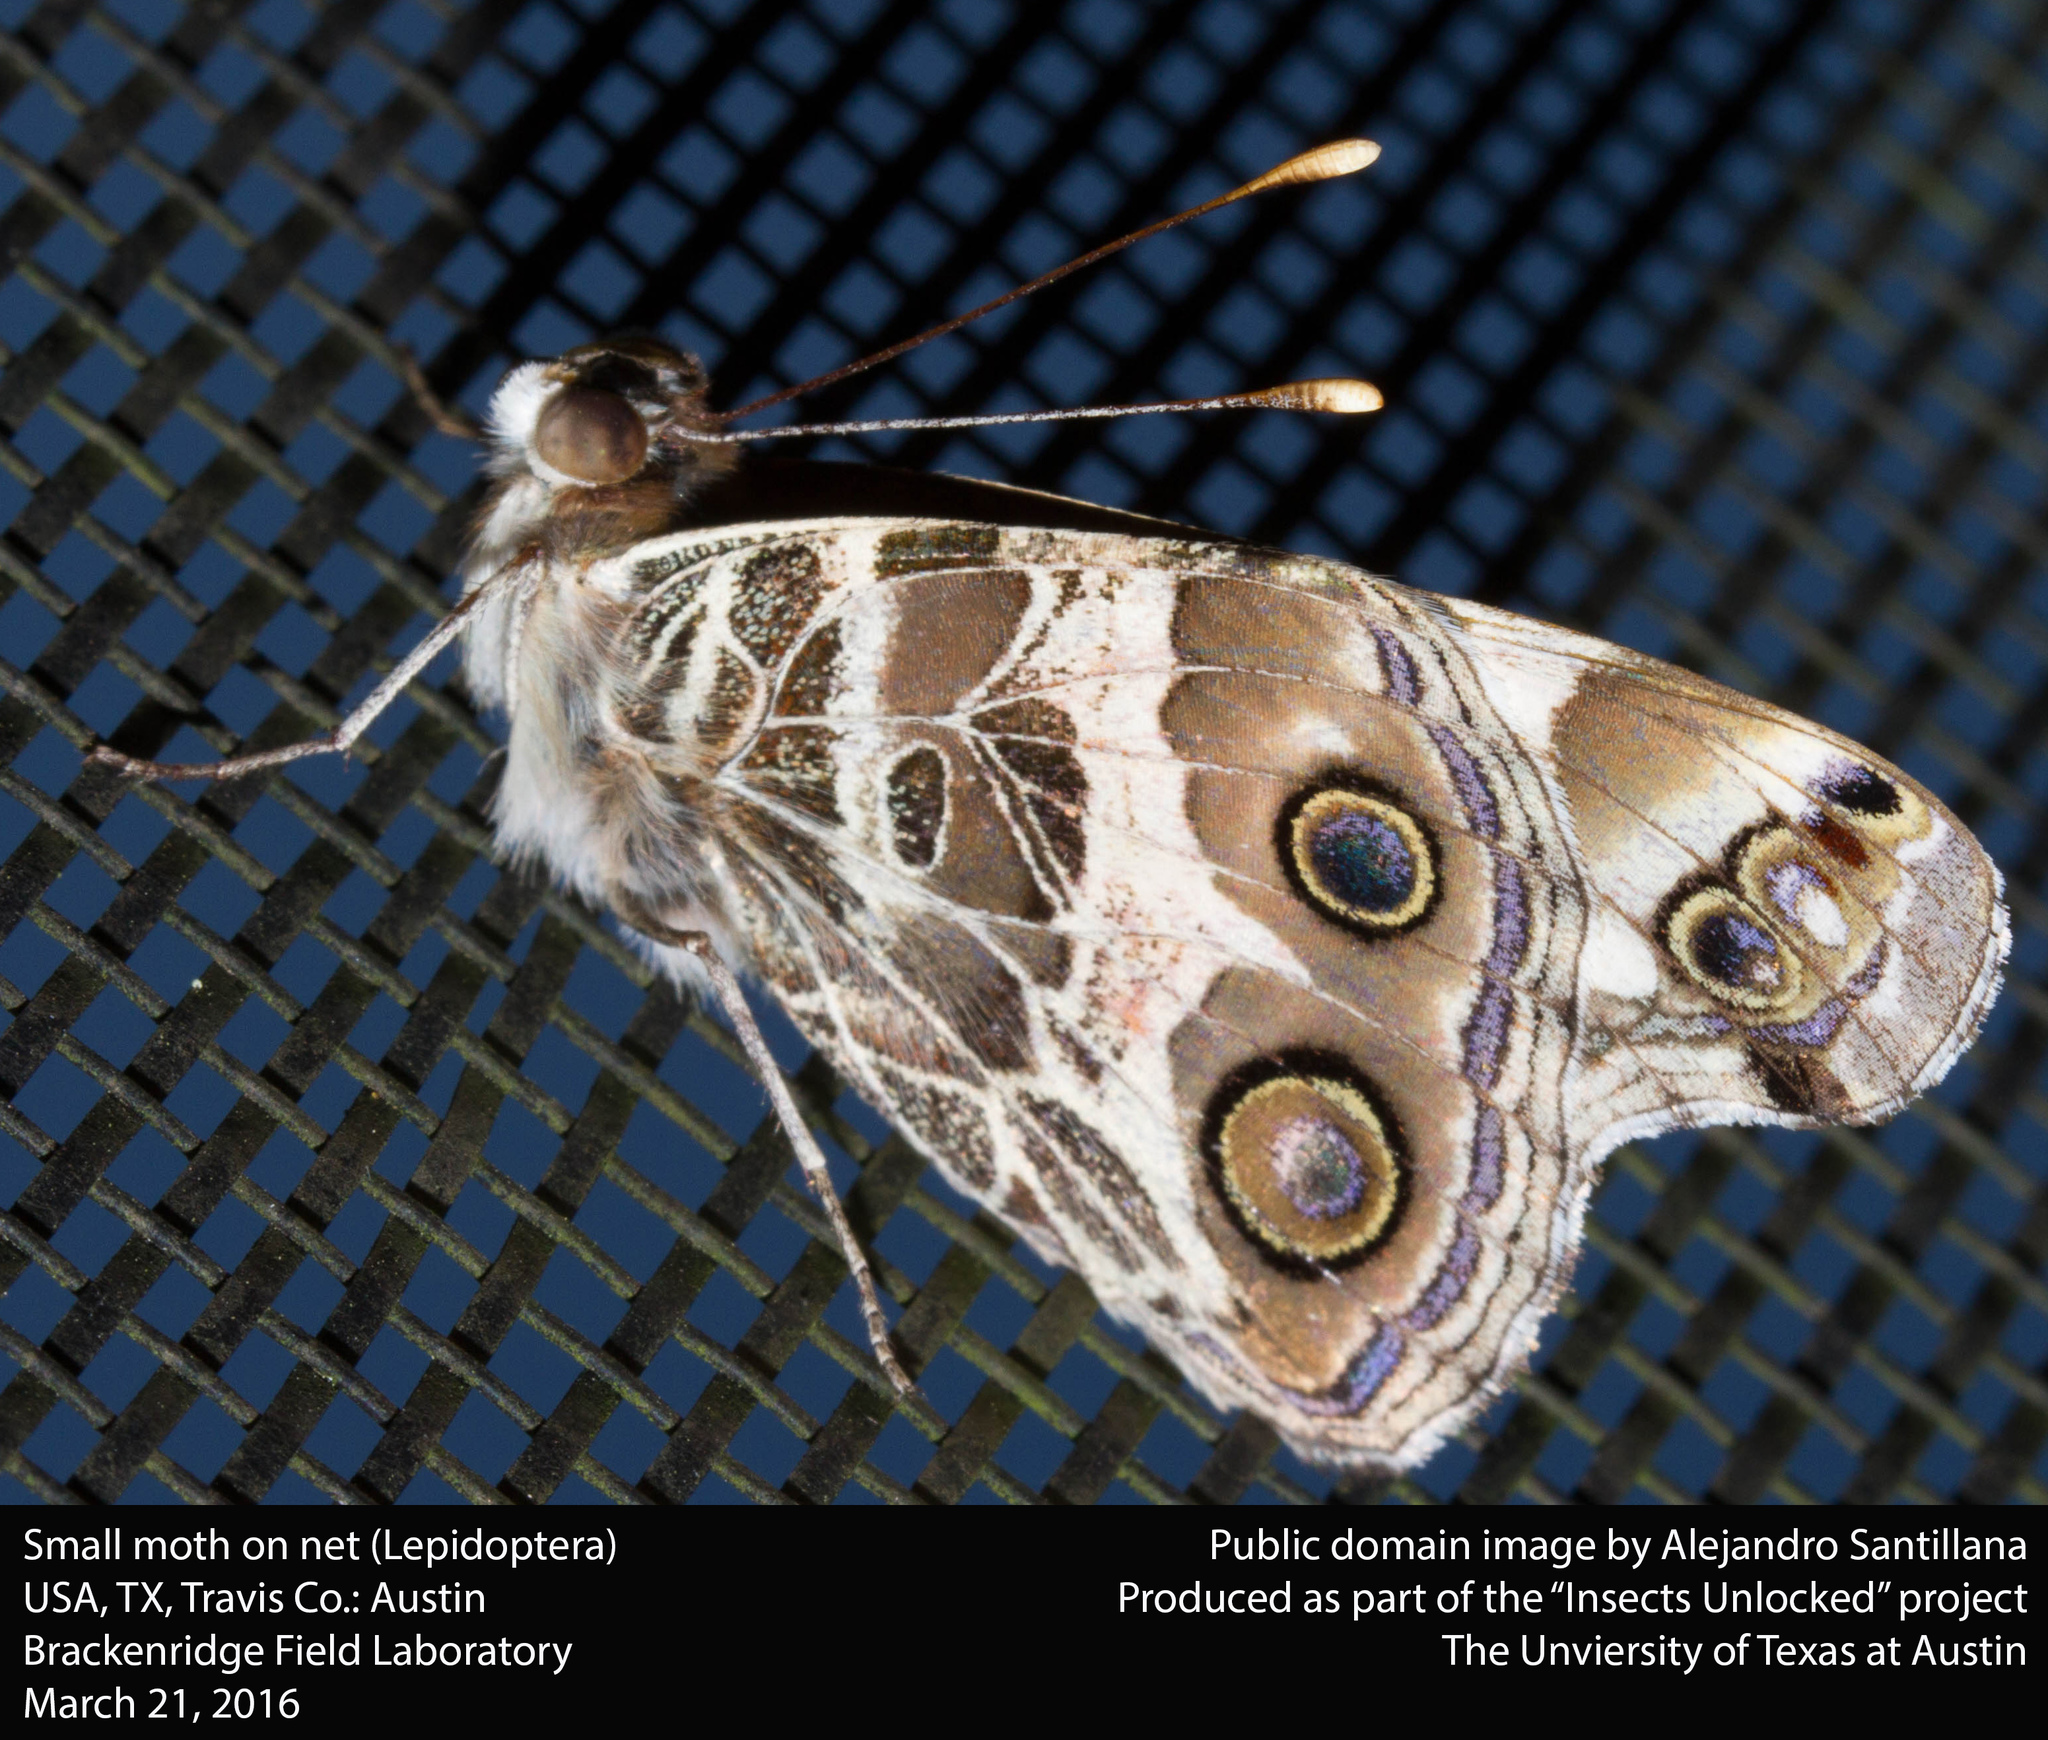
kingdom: Animalia
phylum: Arthropoda
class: Insecta
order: Lepidoptera
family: Nymphalidae
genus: Vanessa
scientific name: Vanessa virginiensis
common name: American lady
